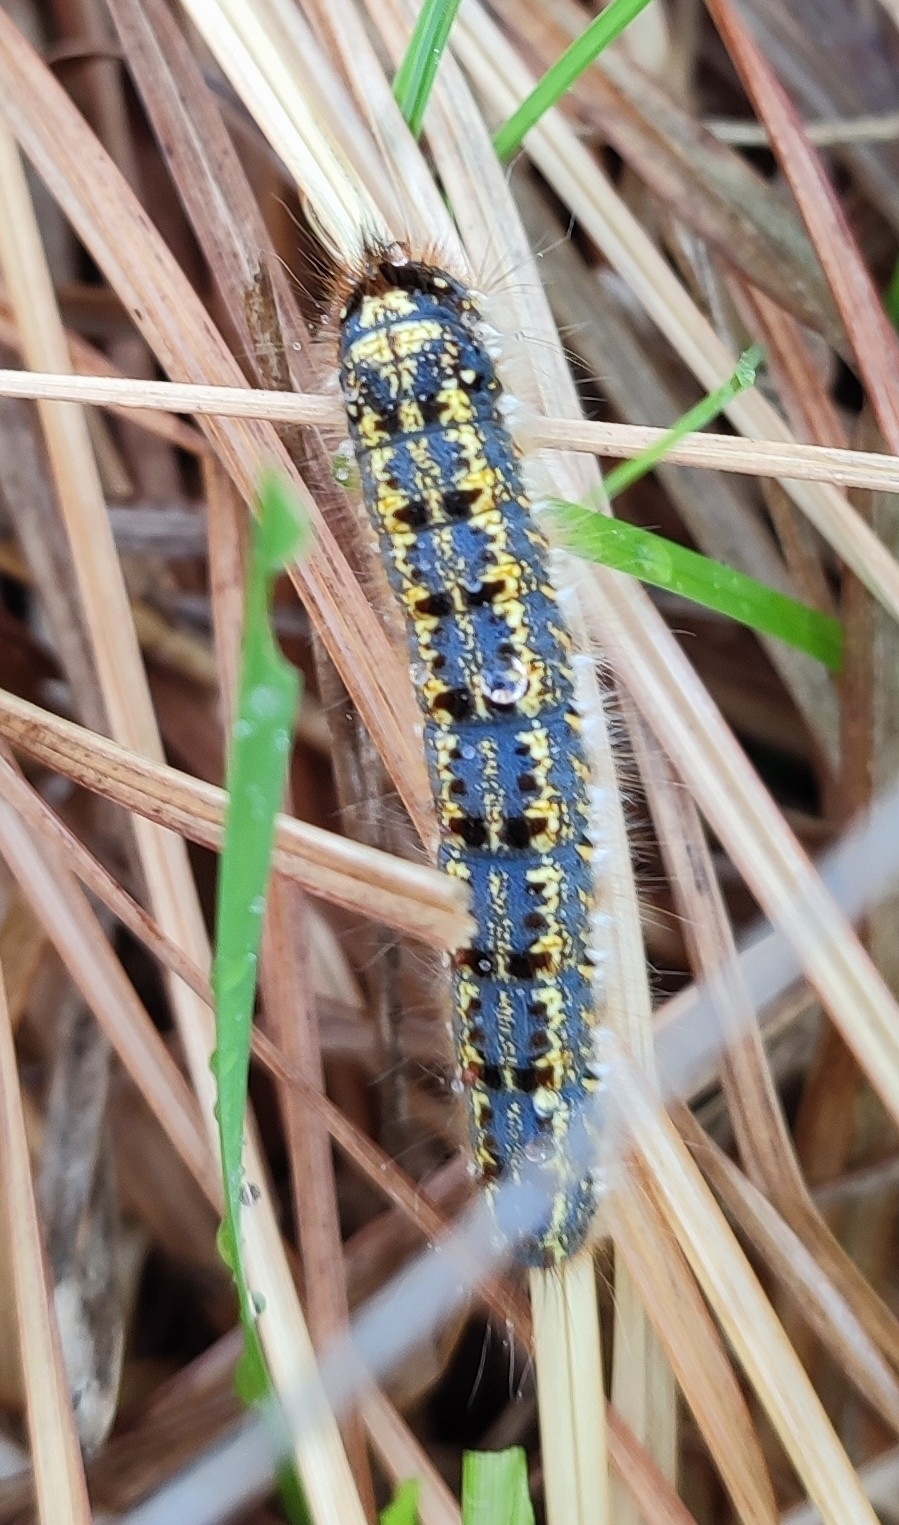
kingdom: Animalia
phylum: Arthropoda
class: Insecta
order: Lepidoptera
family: Lasiocampidae
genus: Euthrix
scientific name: Euthrix potatoria
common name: Drinker
